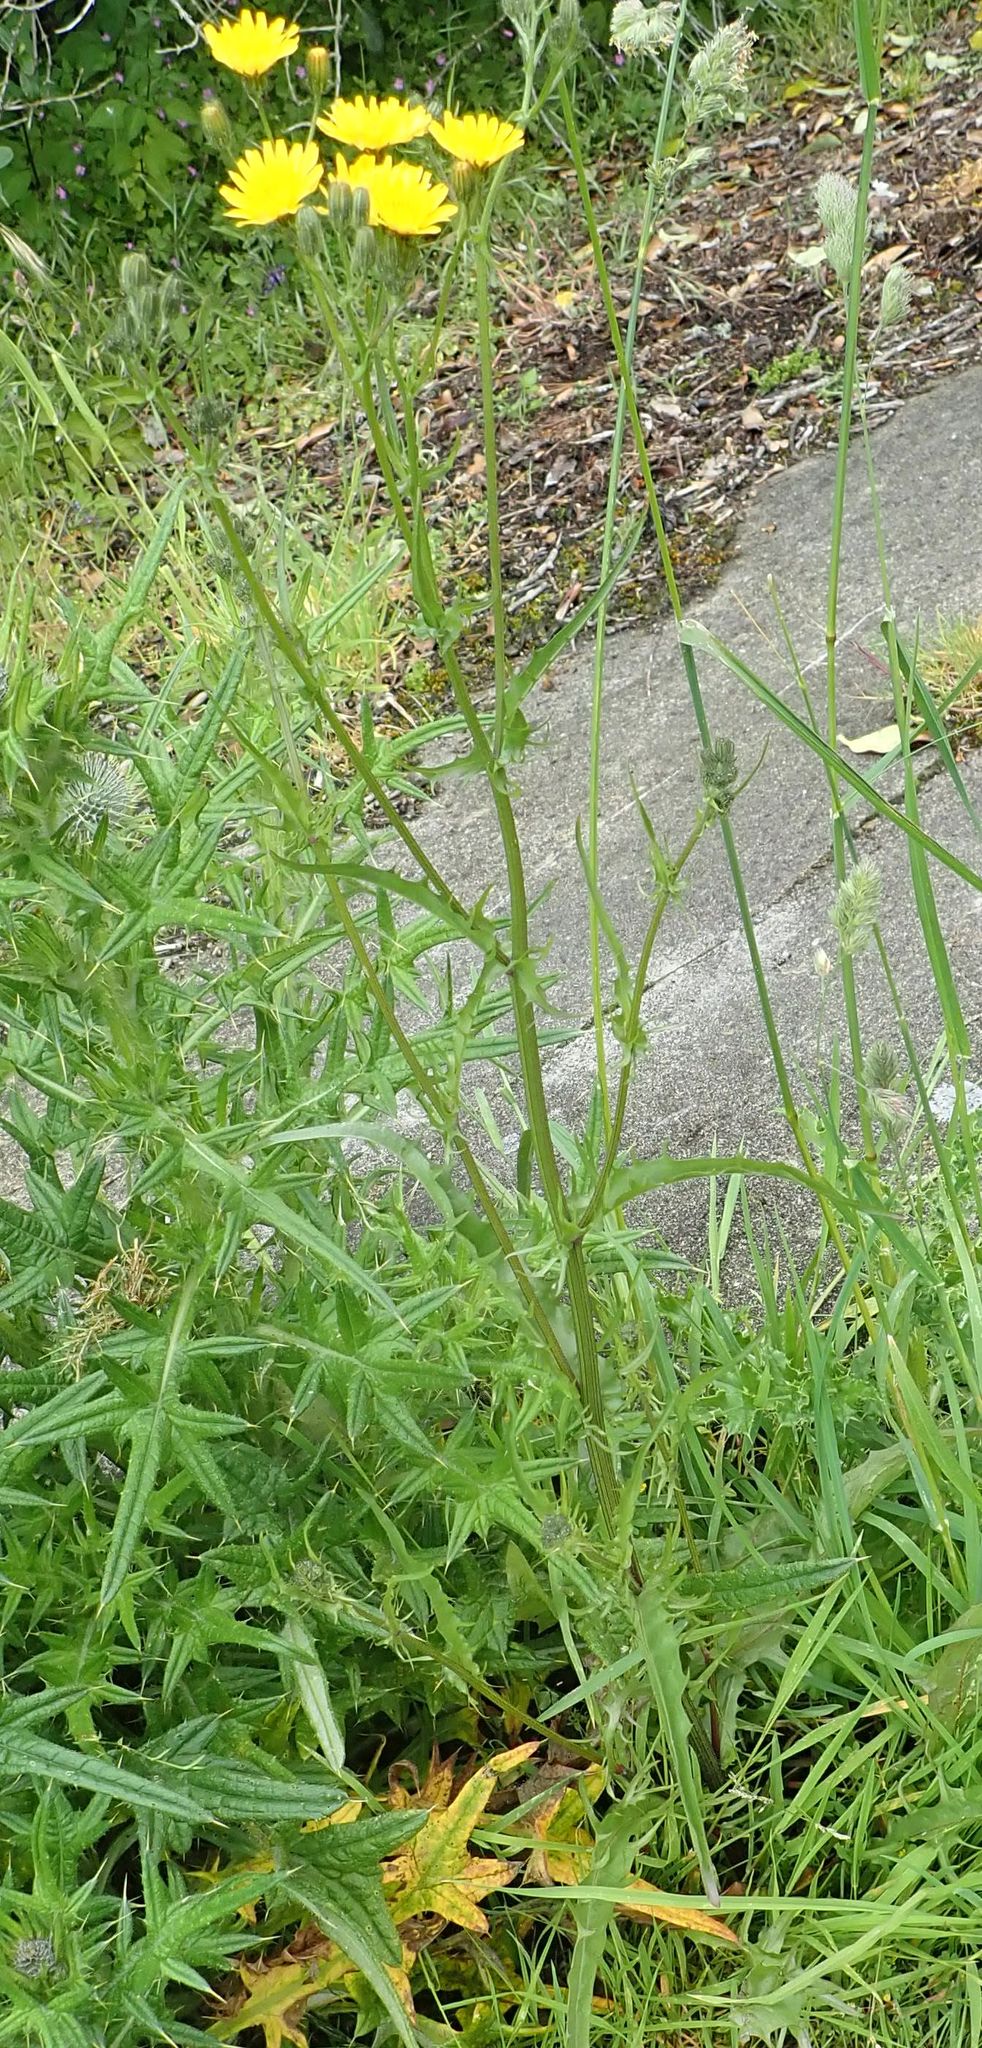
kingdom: Plantae
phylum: Tracheophyta
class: Magnoliopsida
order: Asterales
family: Asteraceae
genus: Crepis
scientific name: Crepis capillaris
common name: Smooth hawksbeard
